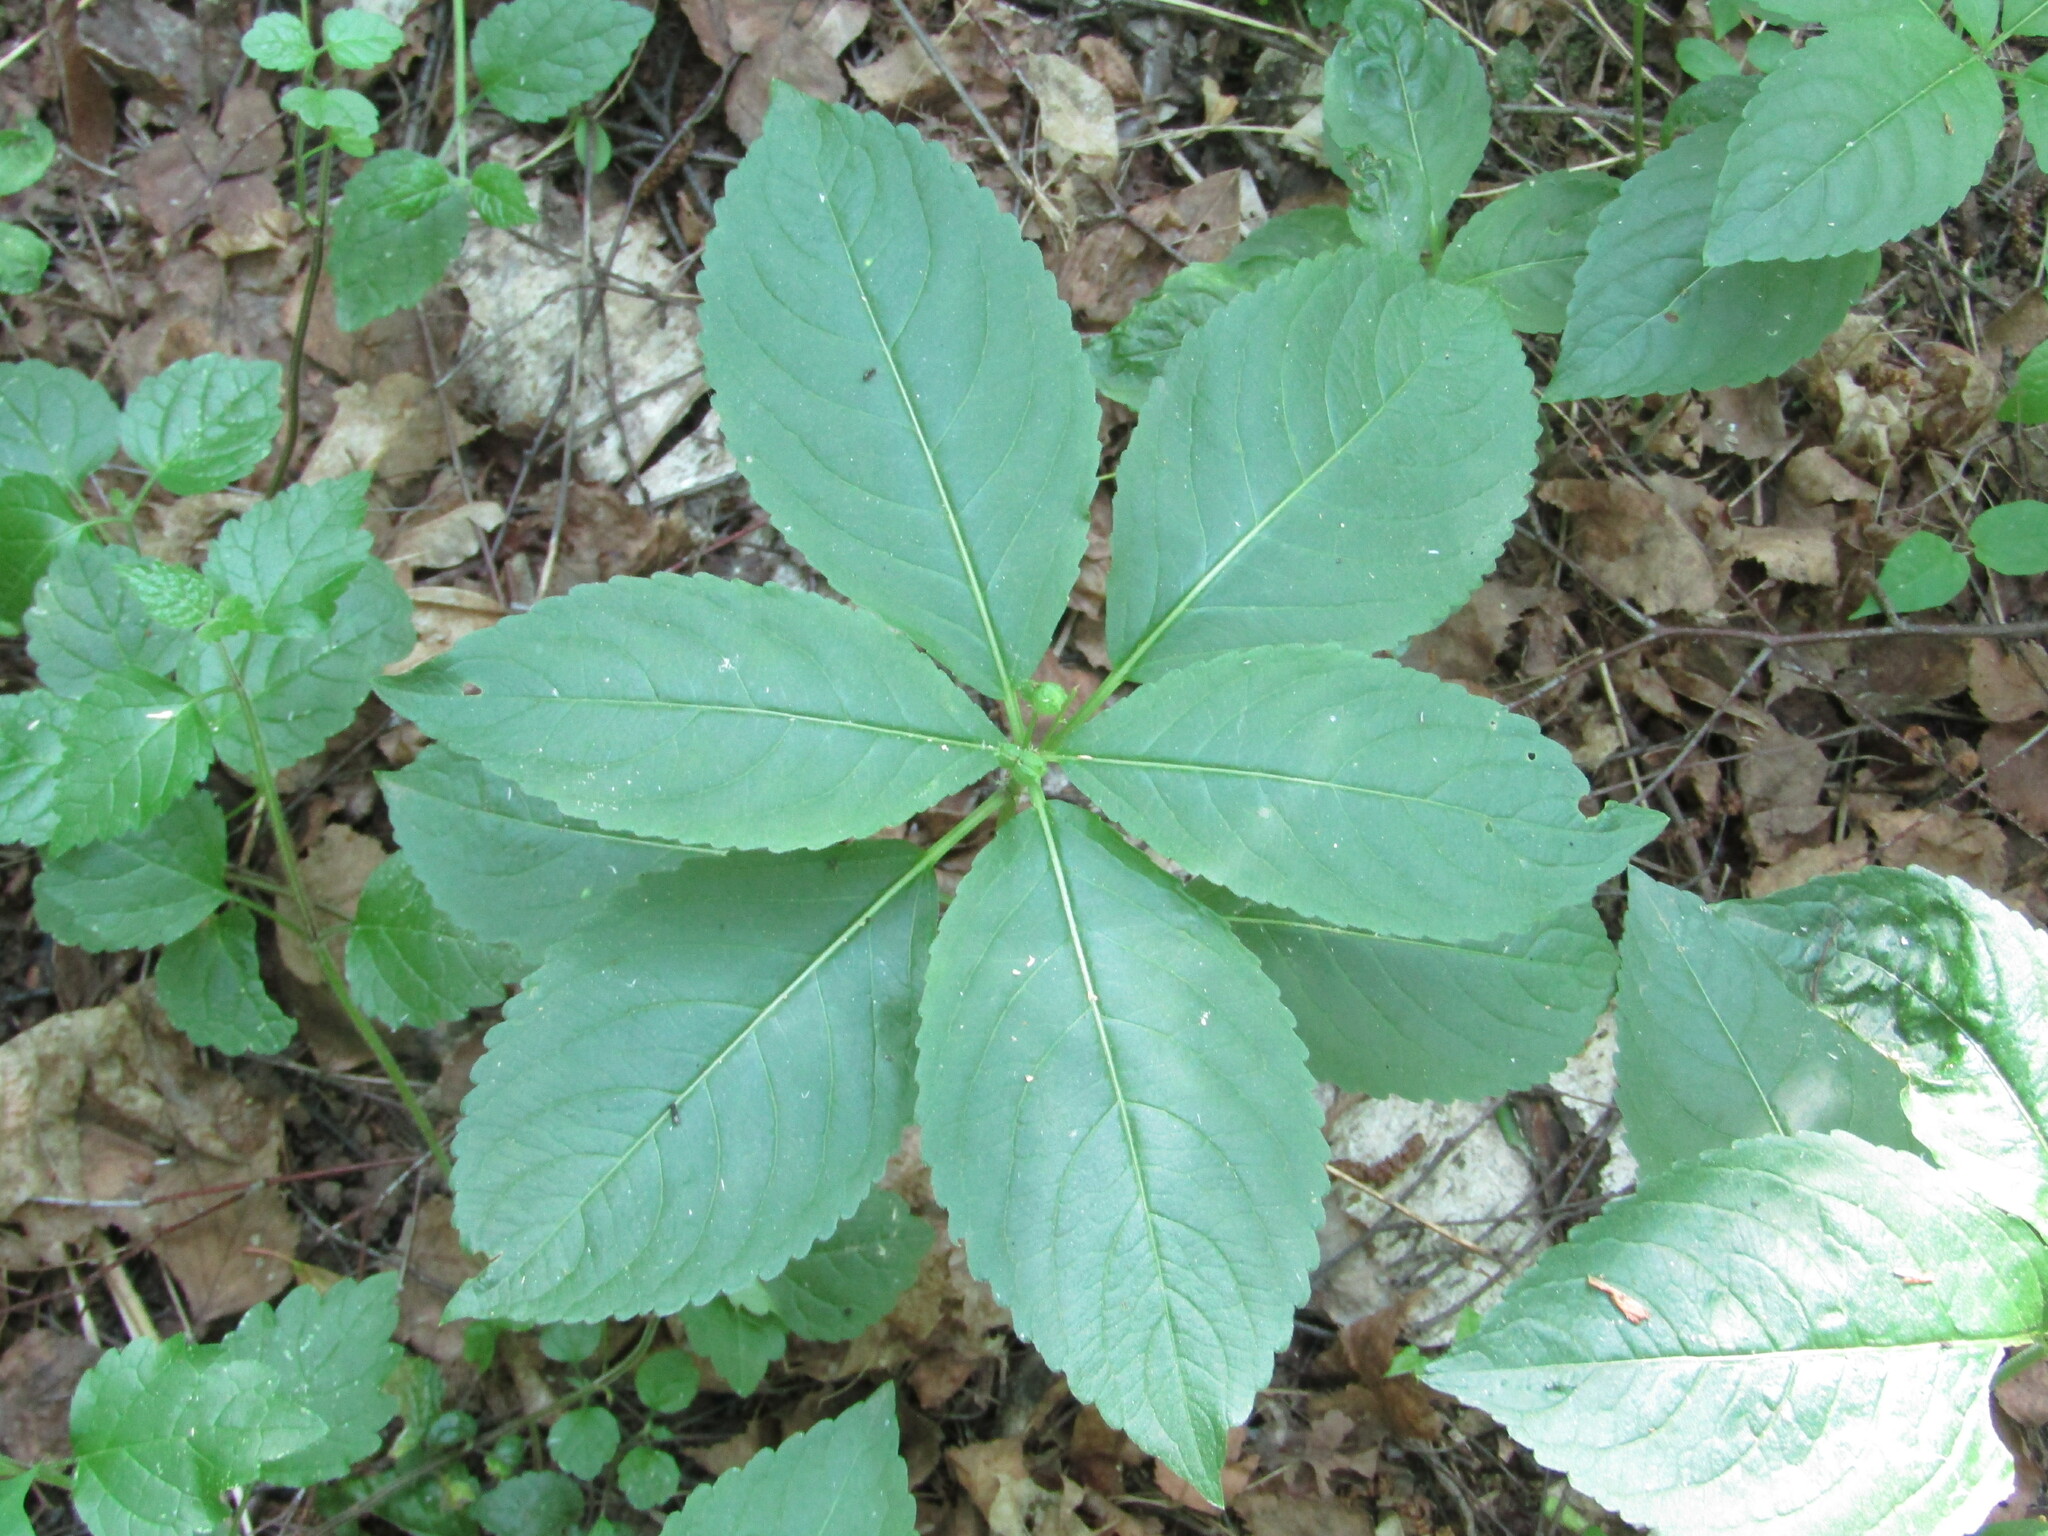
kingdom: Plantae
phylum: Tracheophyta
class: Magnoliopsida
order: Malpighiales
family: Euphorbiaceae
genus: Mercurialis
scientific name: Mercurialis perennis
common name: Dog mercury
